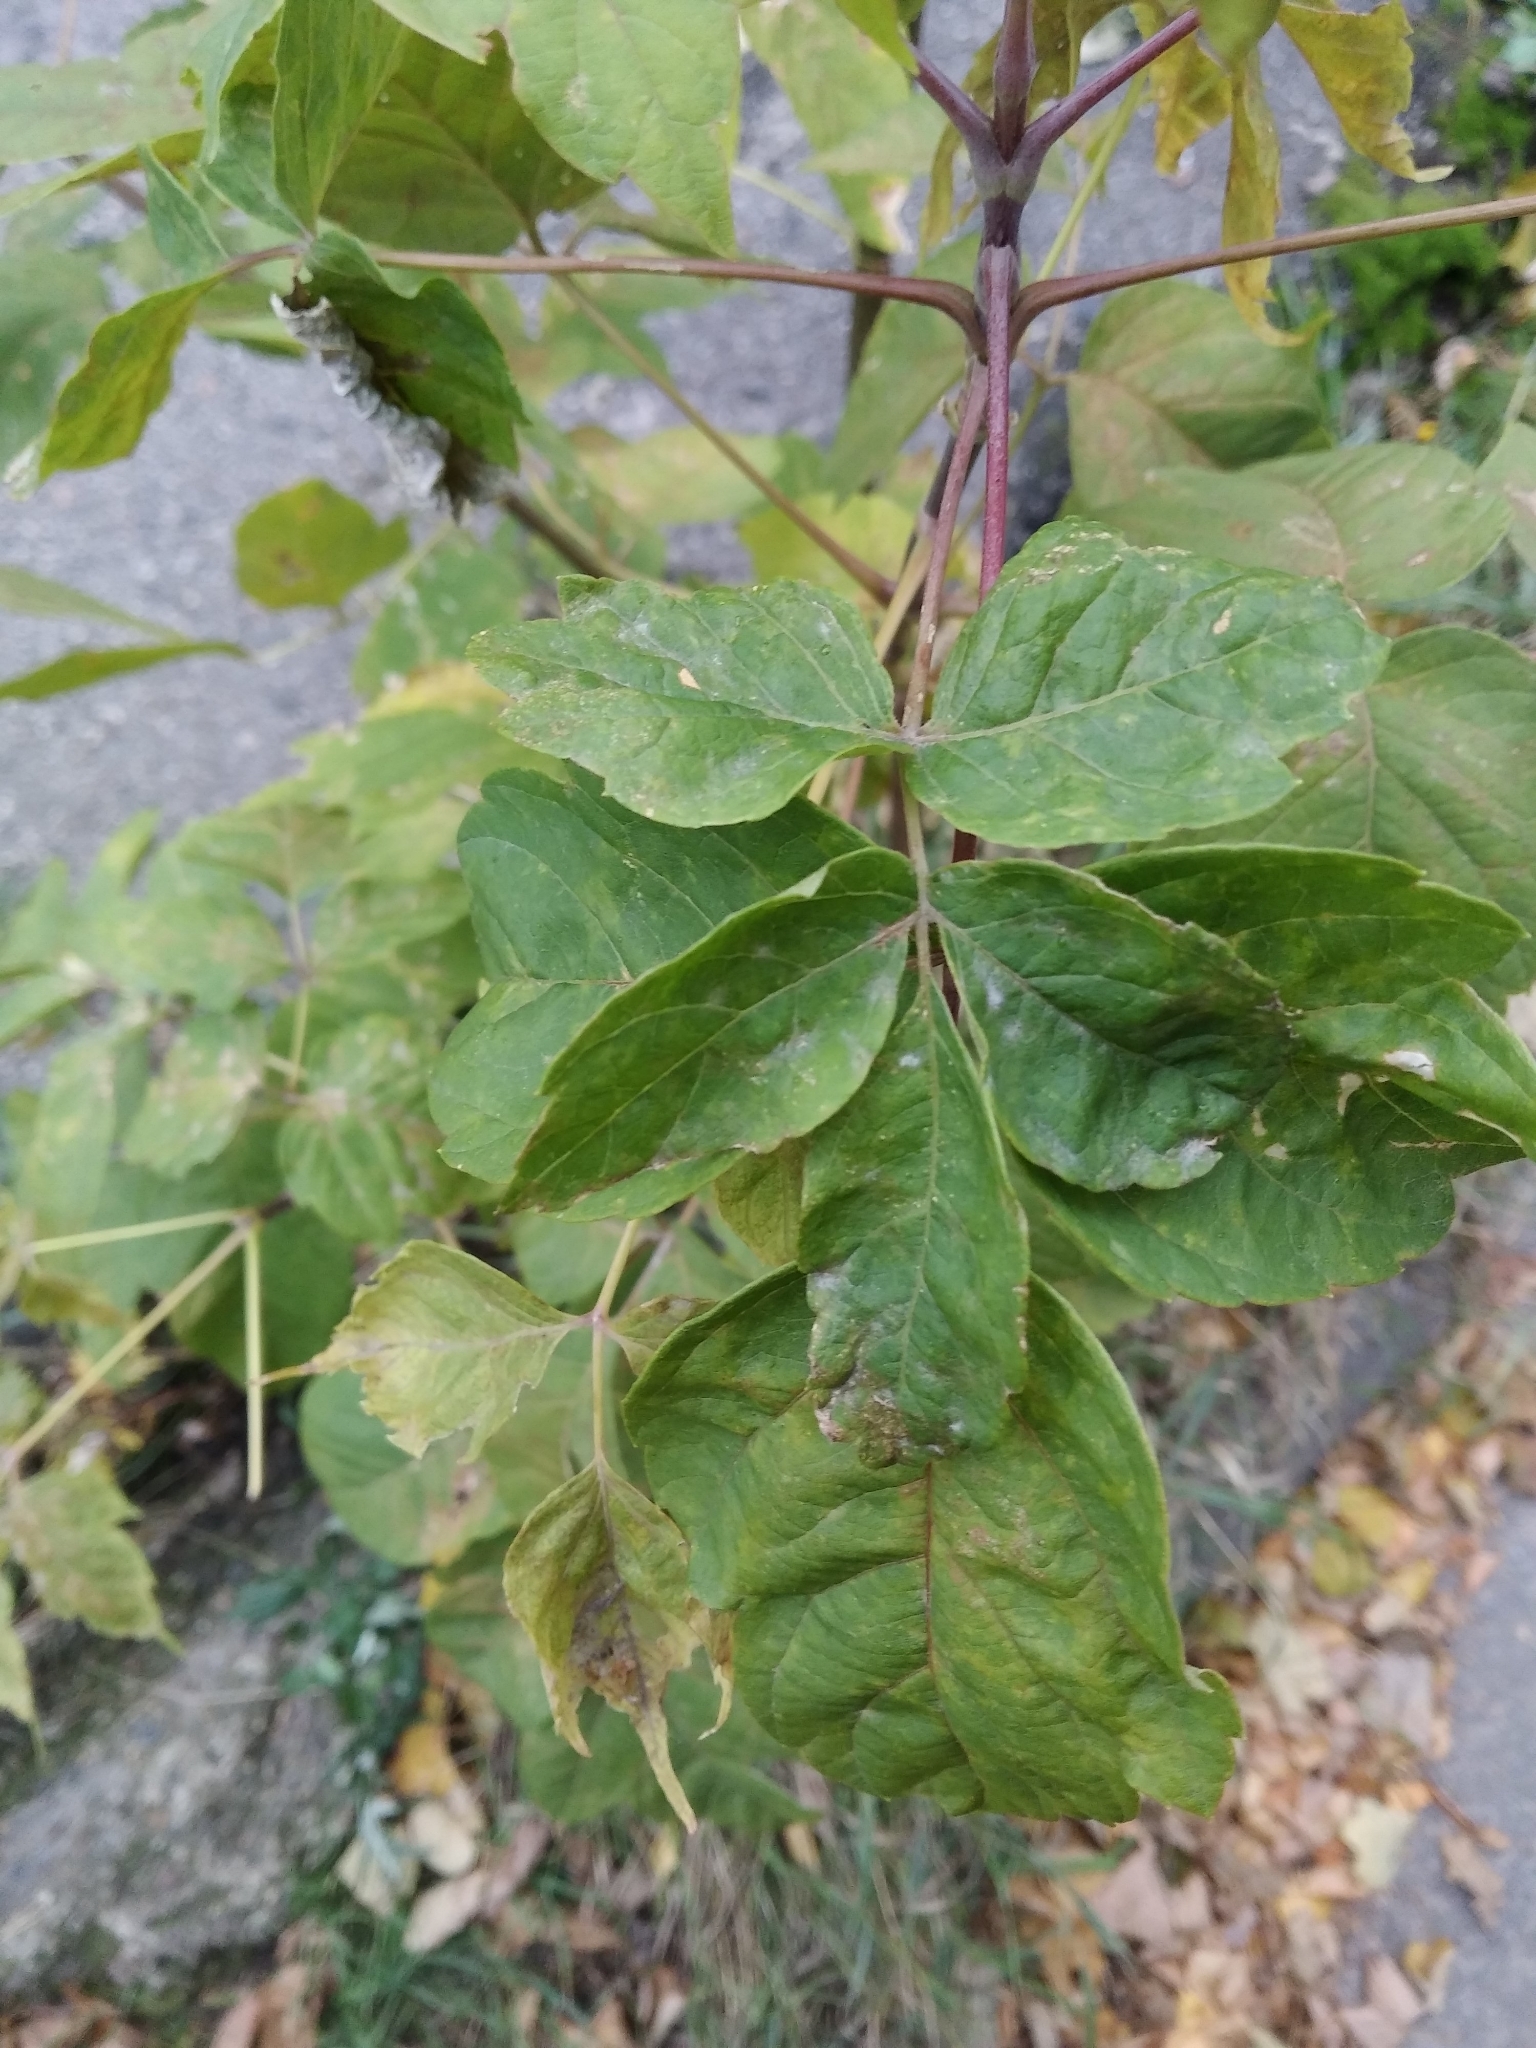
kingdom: Plantae
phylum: Tracheophyta
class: Magnoliopsida
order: Sapindales
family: Sapindaceae
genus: Acer
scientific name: Acer negundo
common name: Ashleaf maple
